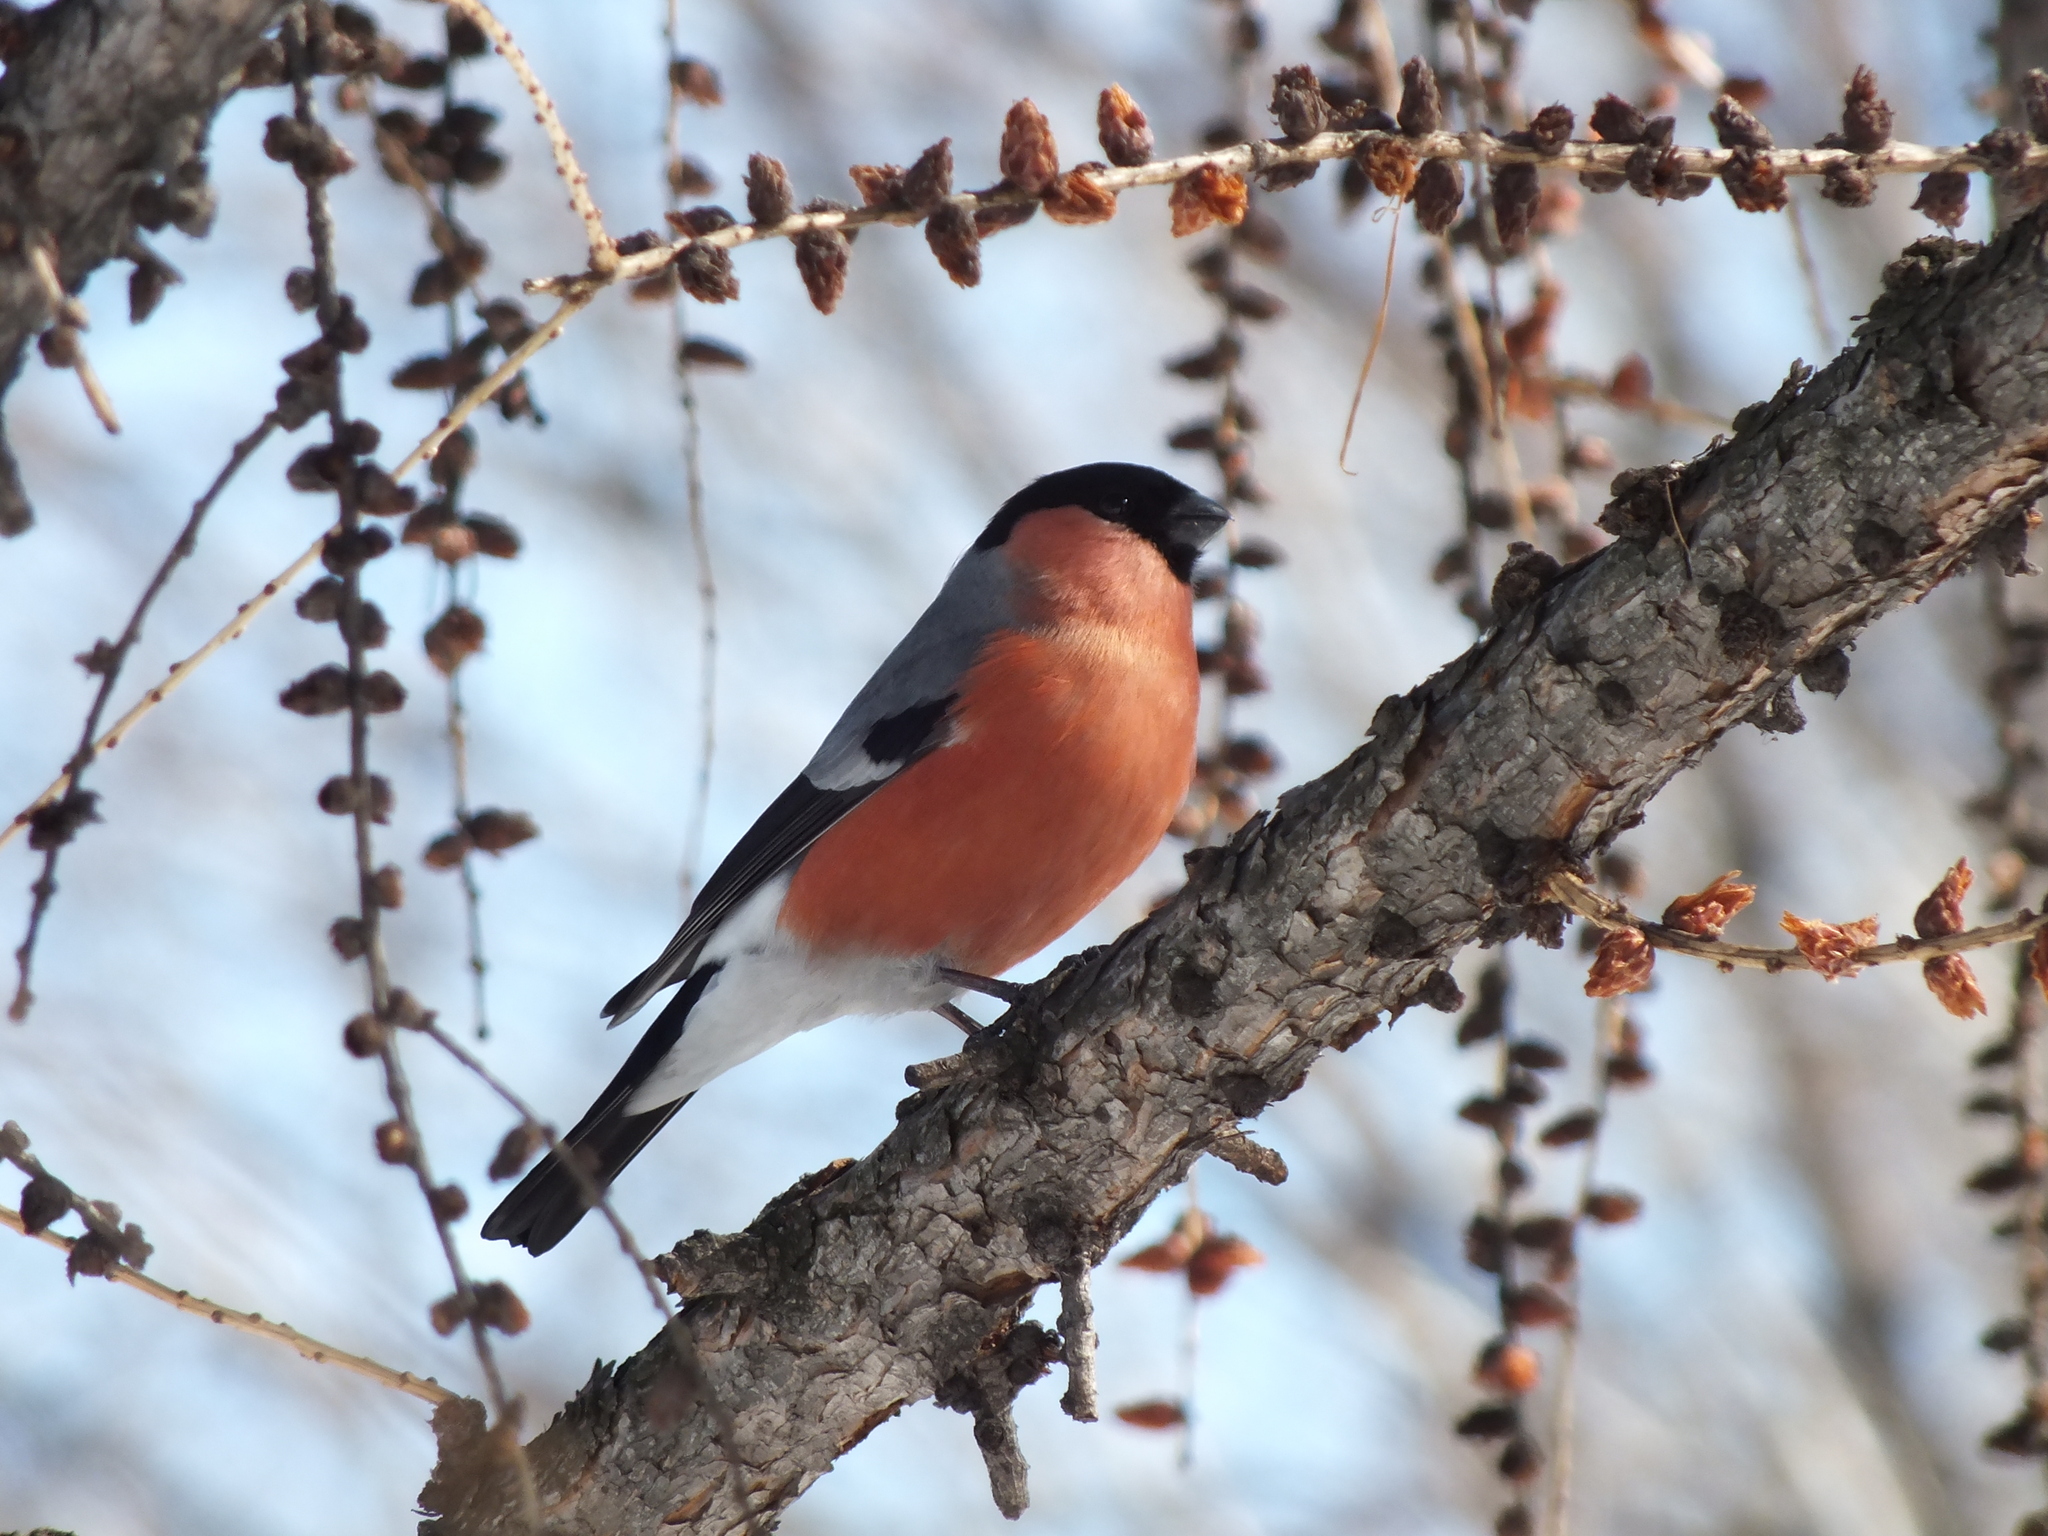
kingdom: Animalia
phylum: Chordata
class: Aves
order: Passeriformes
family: Fringillidae
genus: Pyrrhula
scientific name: Pyrrhula pyrrhula
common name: Eurasian bullfinch
